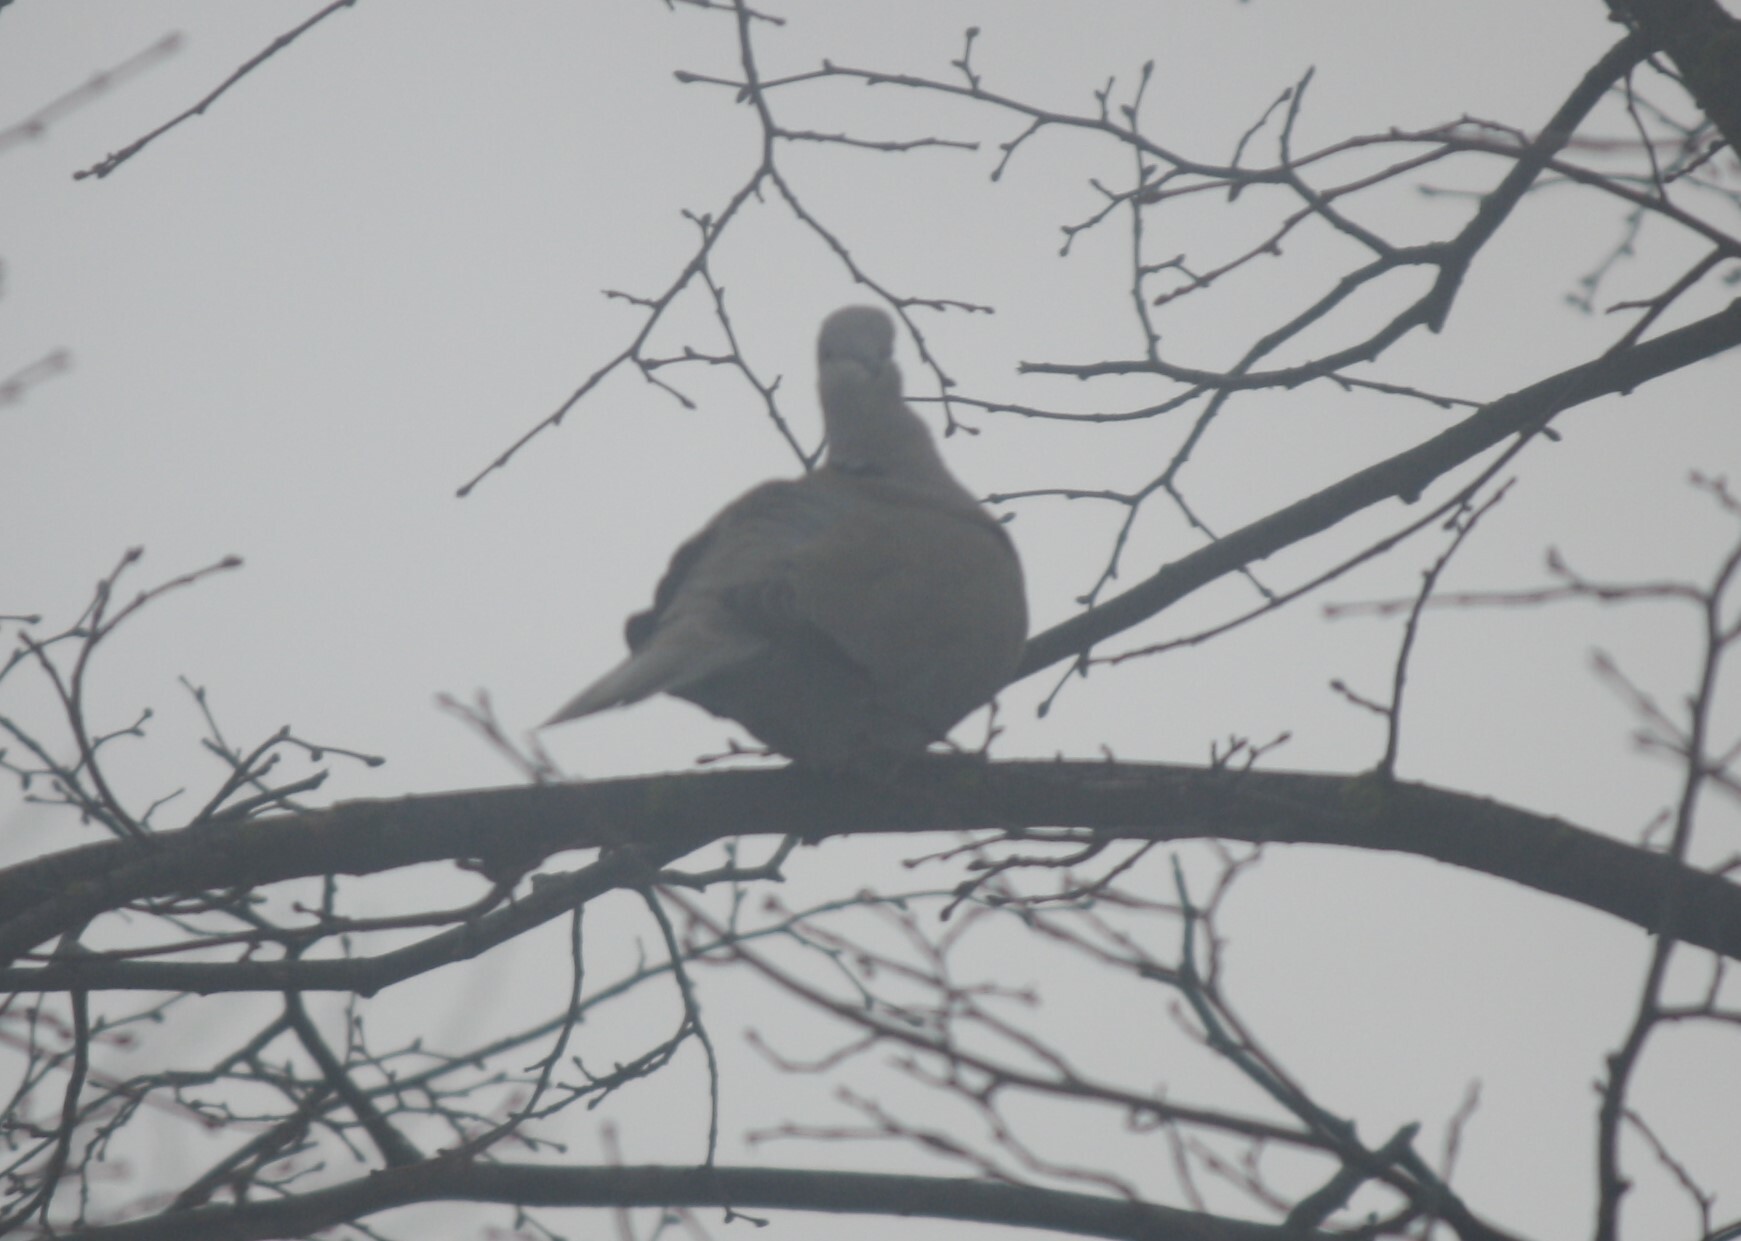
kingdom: Animalia
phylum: Chordata
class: Aves
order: Columbiformes
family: Columbidae
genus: Streptopelia
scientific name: Streptopelia decaocto
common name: Eurasian collared dove
